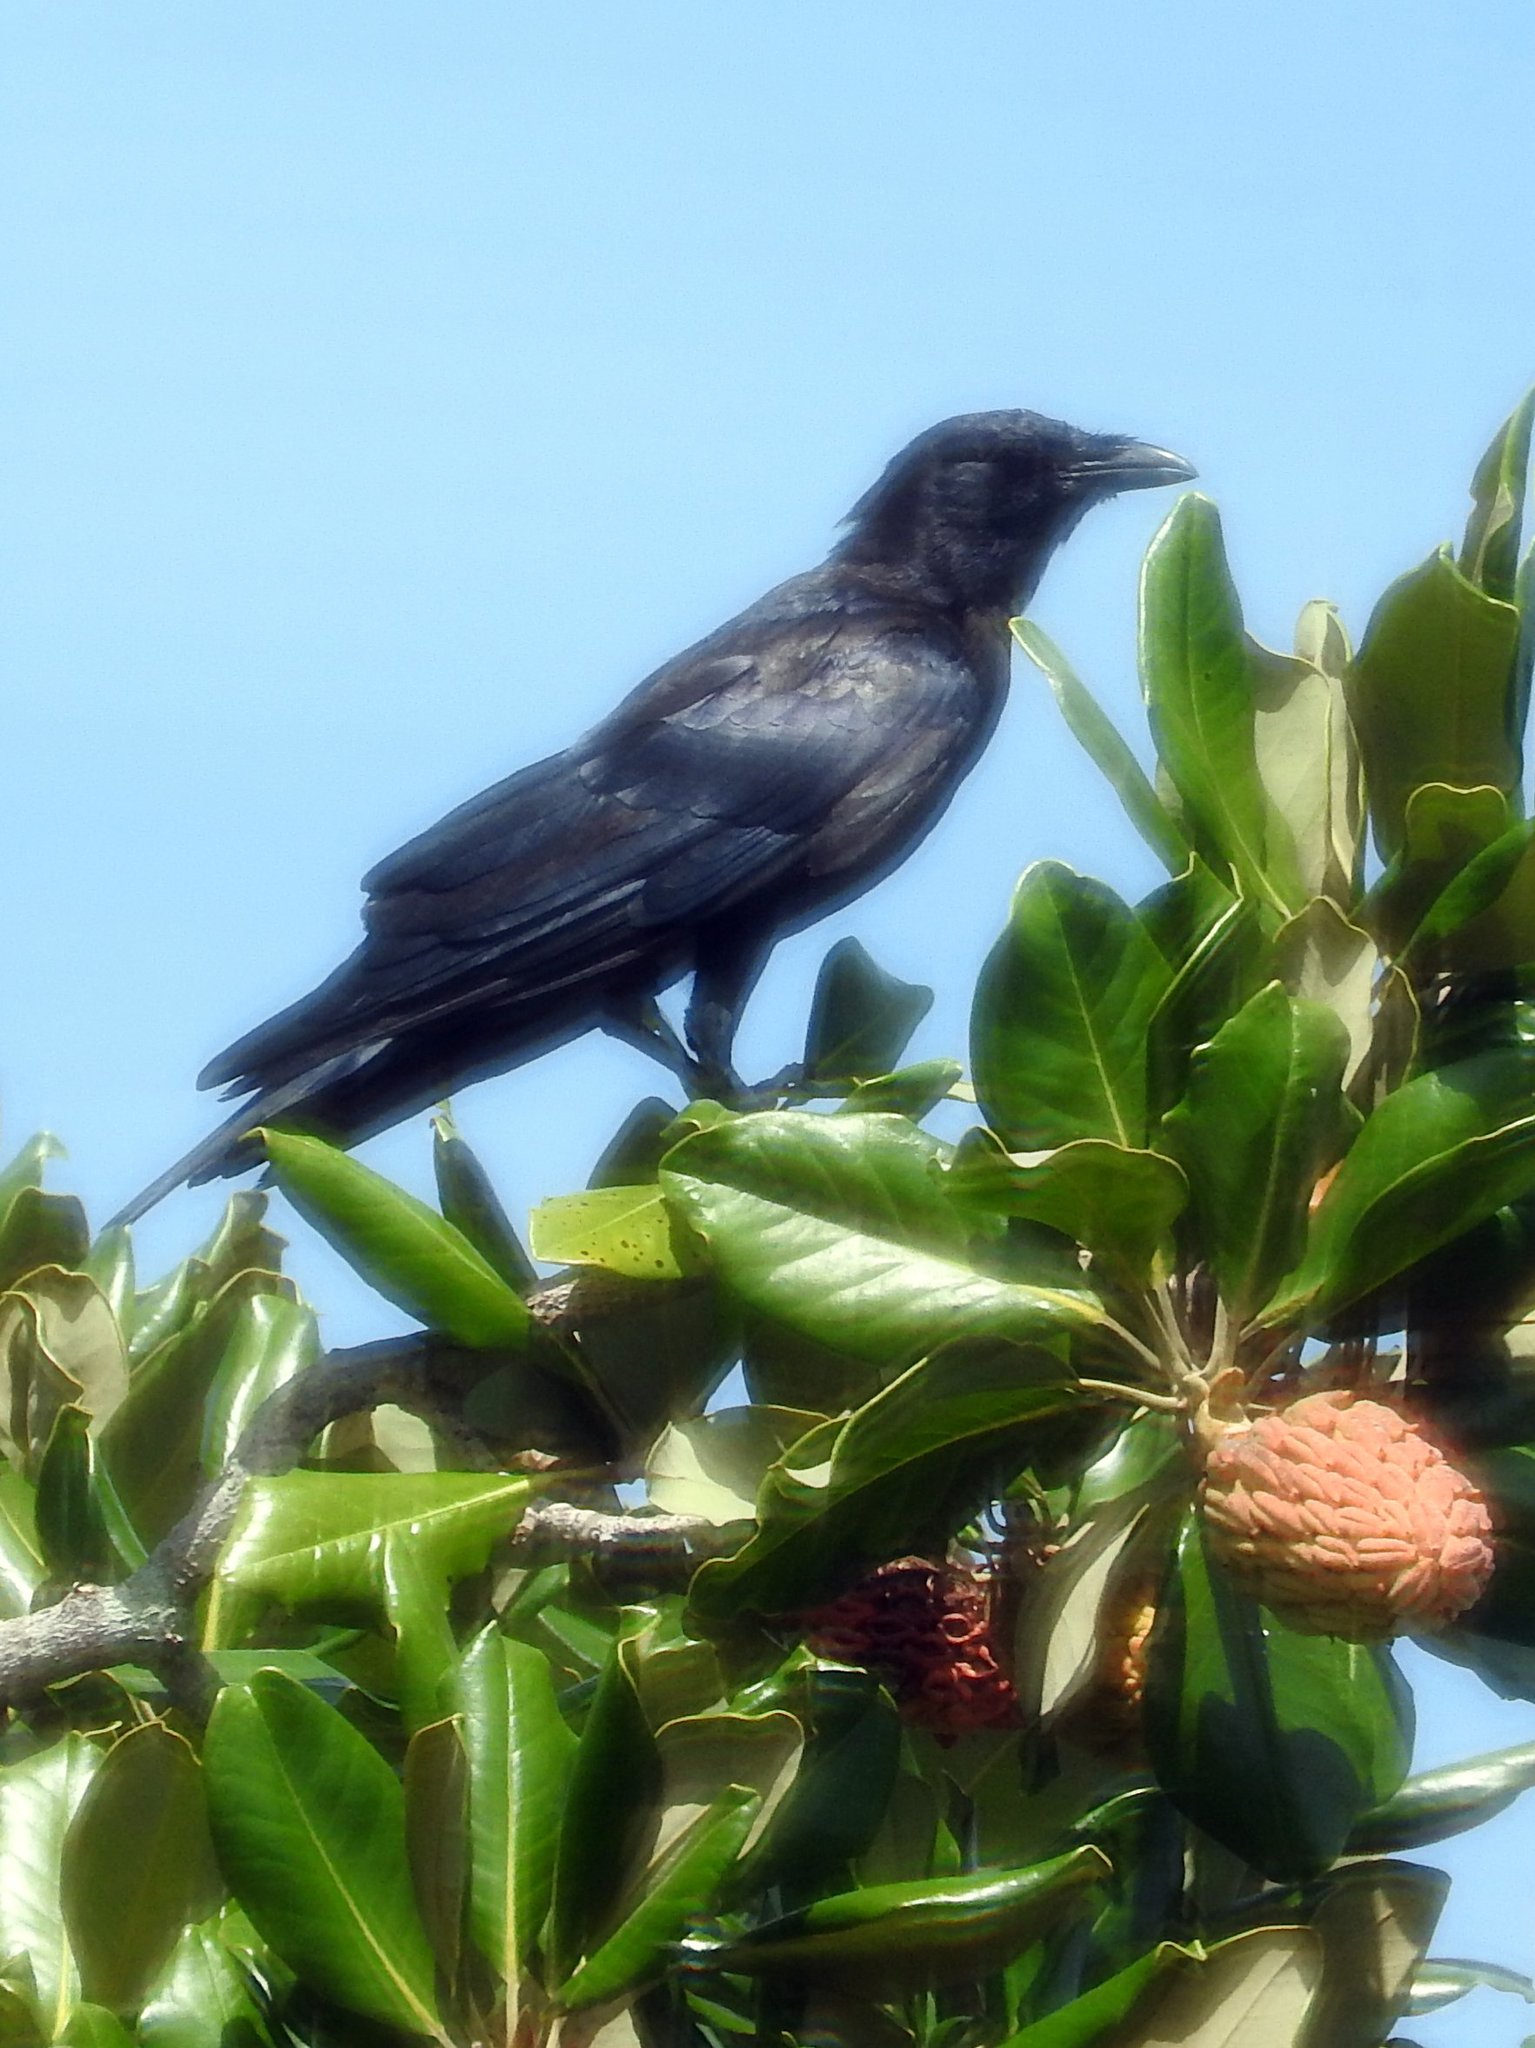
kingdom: Animalia
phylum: Chordata
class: Aves
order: Passeriformes
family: Corvidae
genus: Corvus
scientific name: Corvus ossifragus
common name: Fish crow
